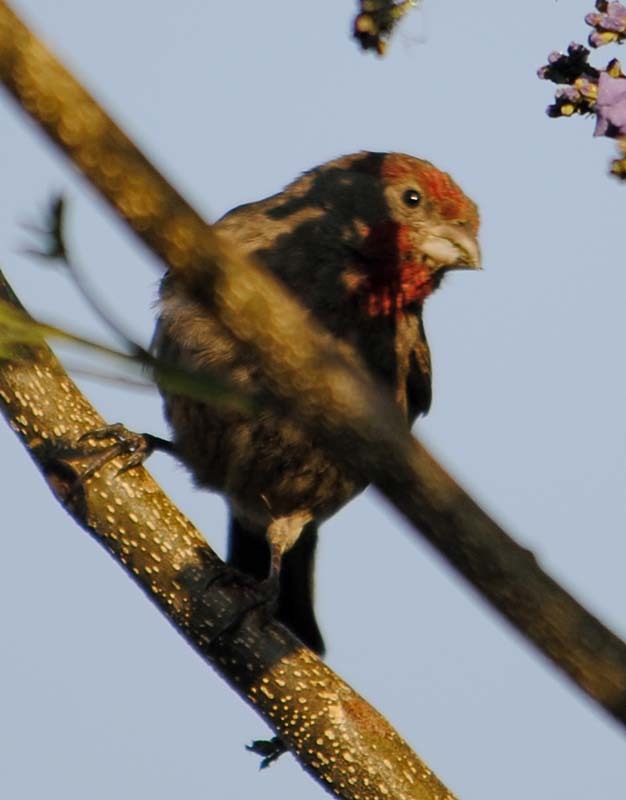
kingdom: Animalia
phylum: Chordata
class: Aves
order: Passeriformes
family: Fringillidae
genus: Haemorhous
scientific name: Haemorhous mexicanus
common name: House finch
